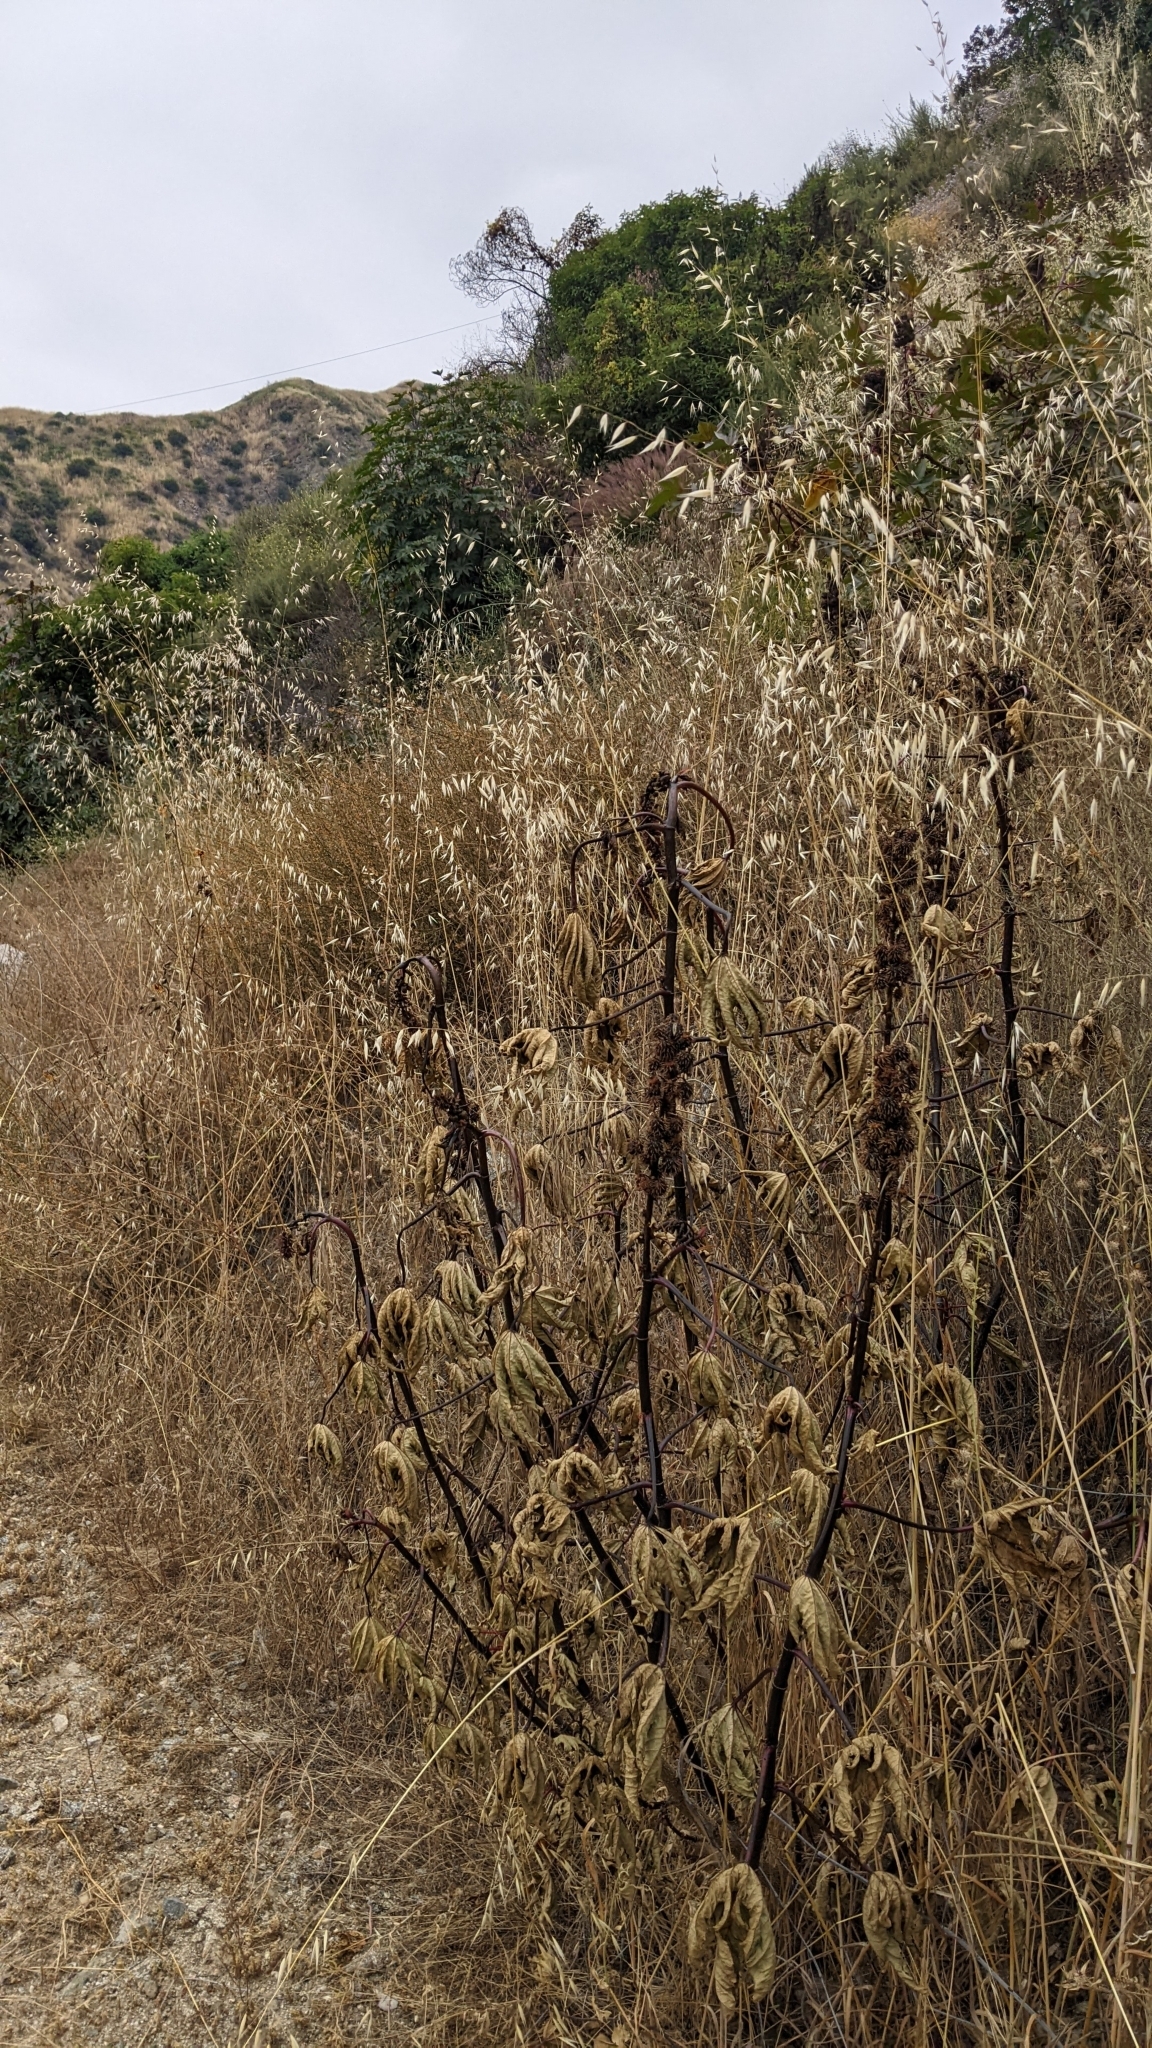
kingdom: Plantae
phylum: Tracheophyta
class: Magnoliopsida
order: Malpighiales
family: Euphorbiaceae
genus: Ricinus
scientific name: Ricinus communis
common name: Castor-oil-plant
